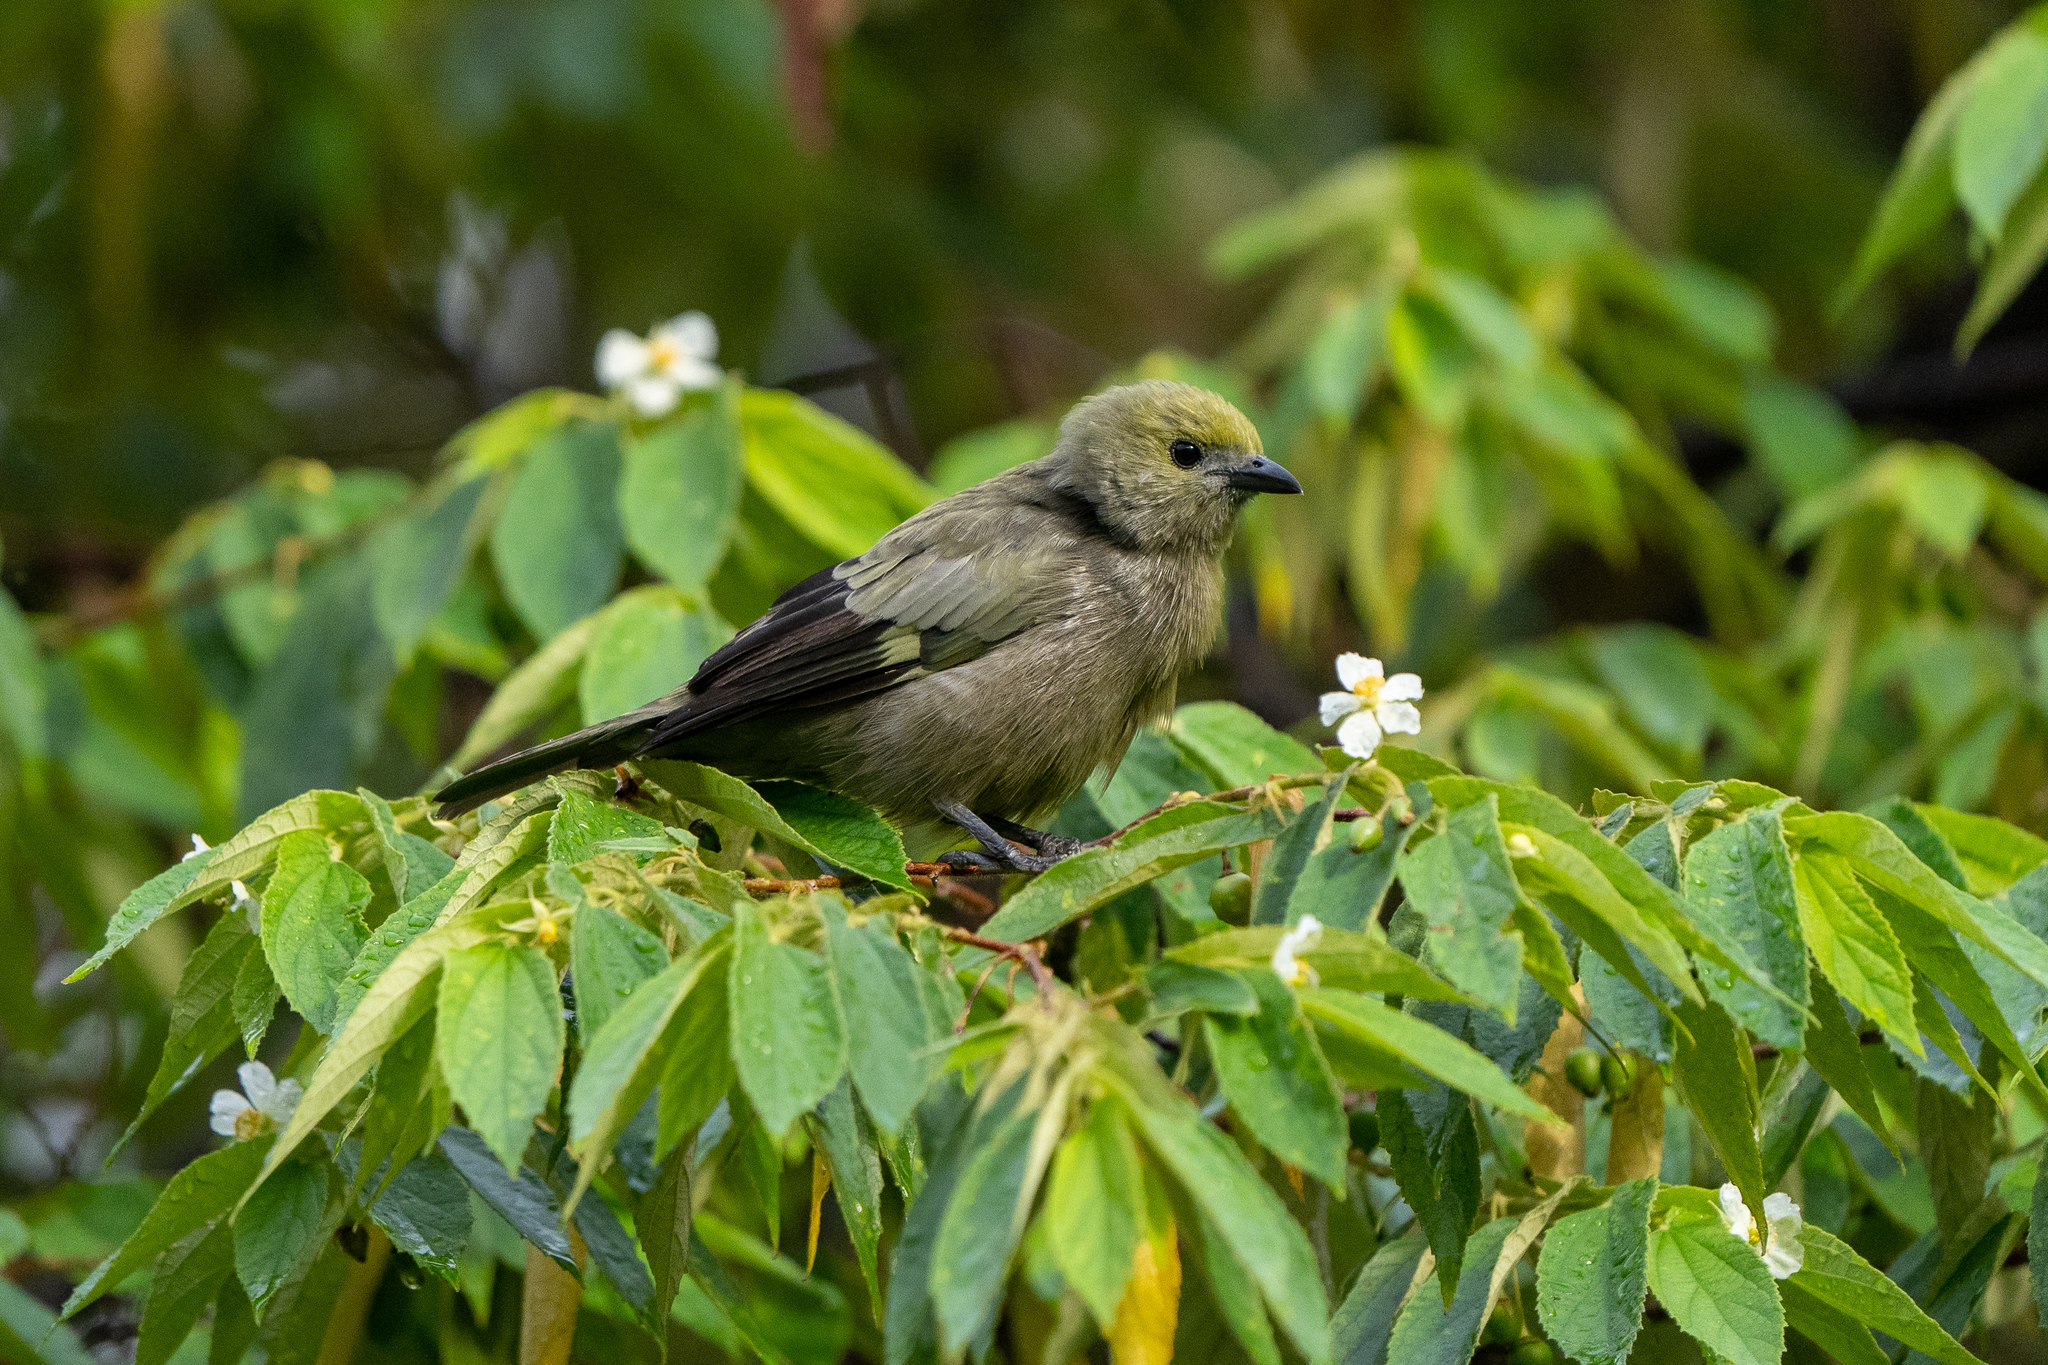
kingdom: Animalia
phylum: Chordata
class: Aves
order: Passeriformes
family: Thraupidae
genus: Thraupis
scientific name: Thraupis palmarum
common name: Palm tanager
